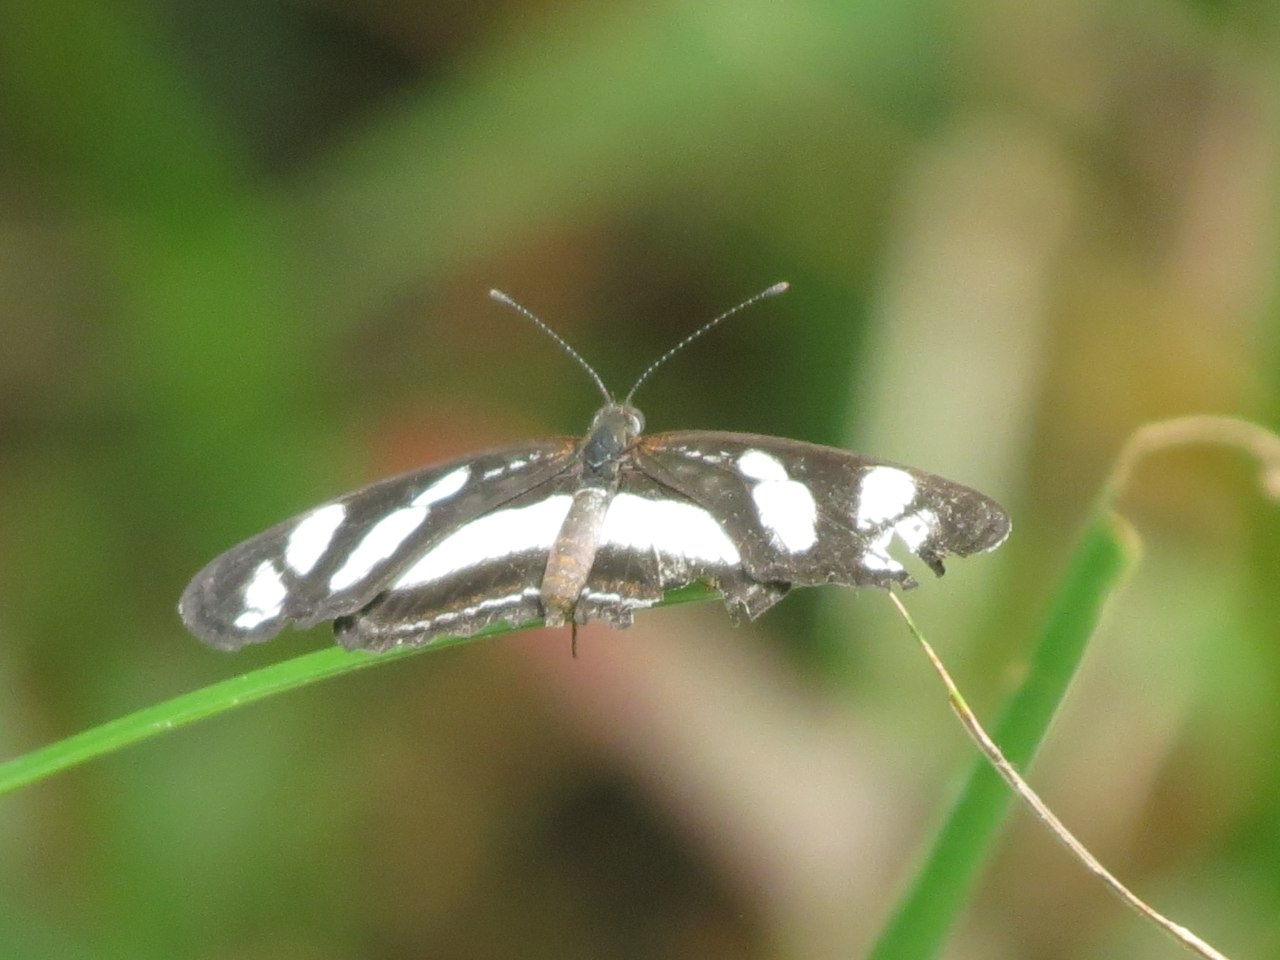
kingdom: Animalia
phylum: Arthropoda
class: Insecta
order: Lepidoptera
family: Nymphalidae
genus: Eresia
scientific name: Eresia nauplius
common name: Nauplius crescent
